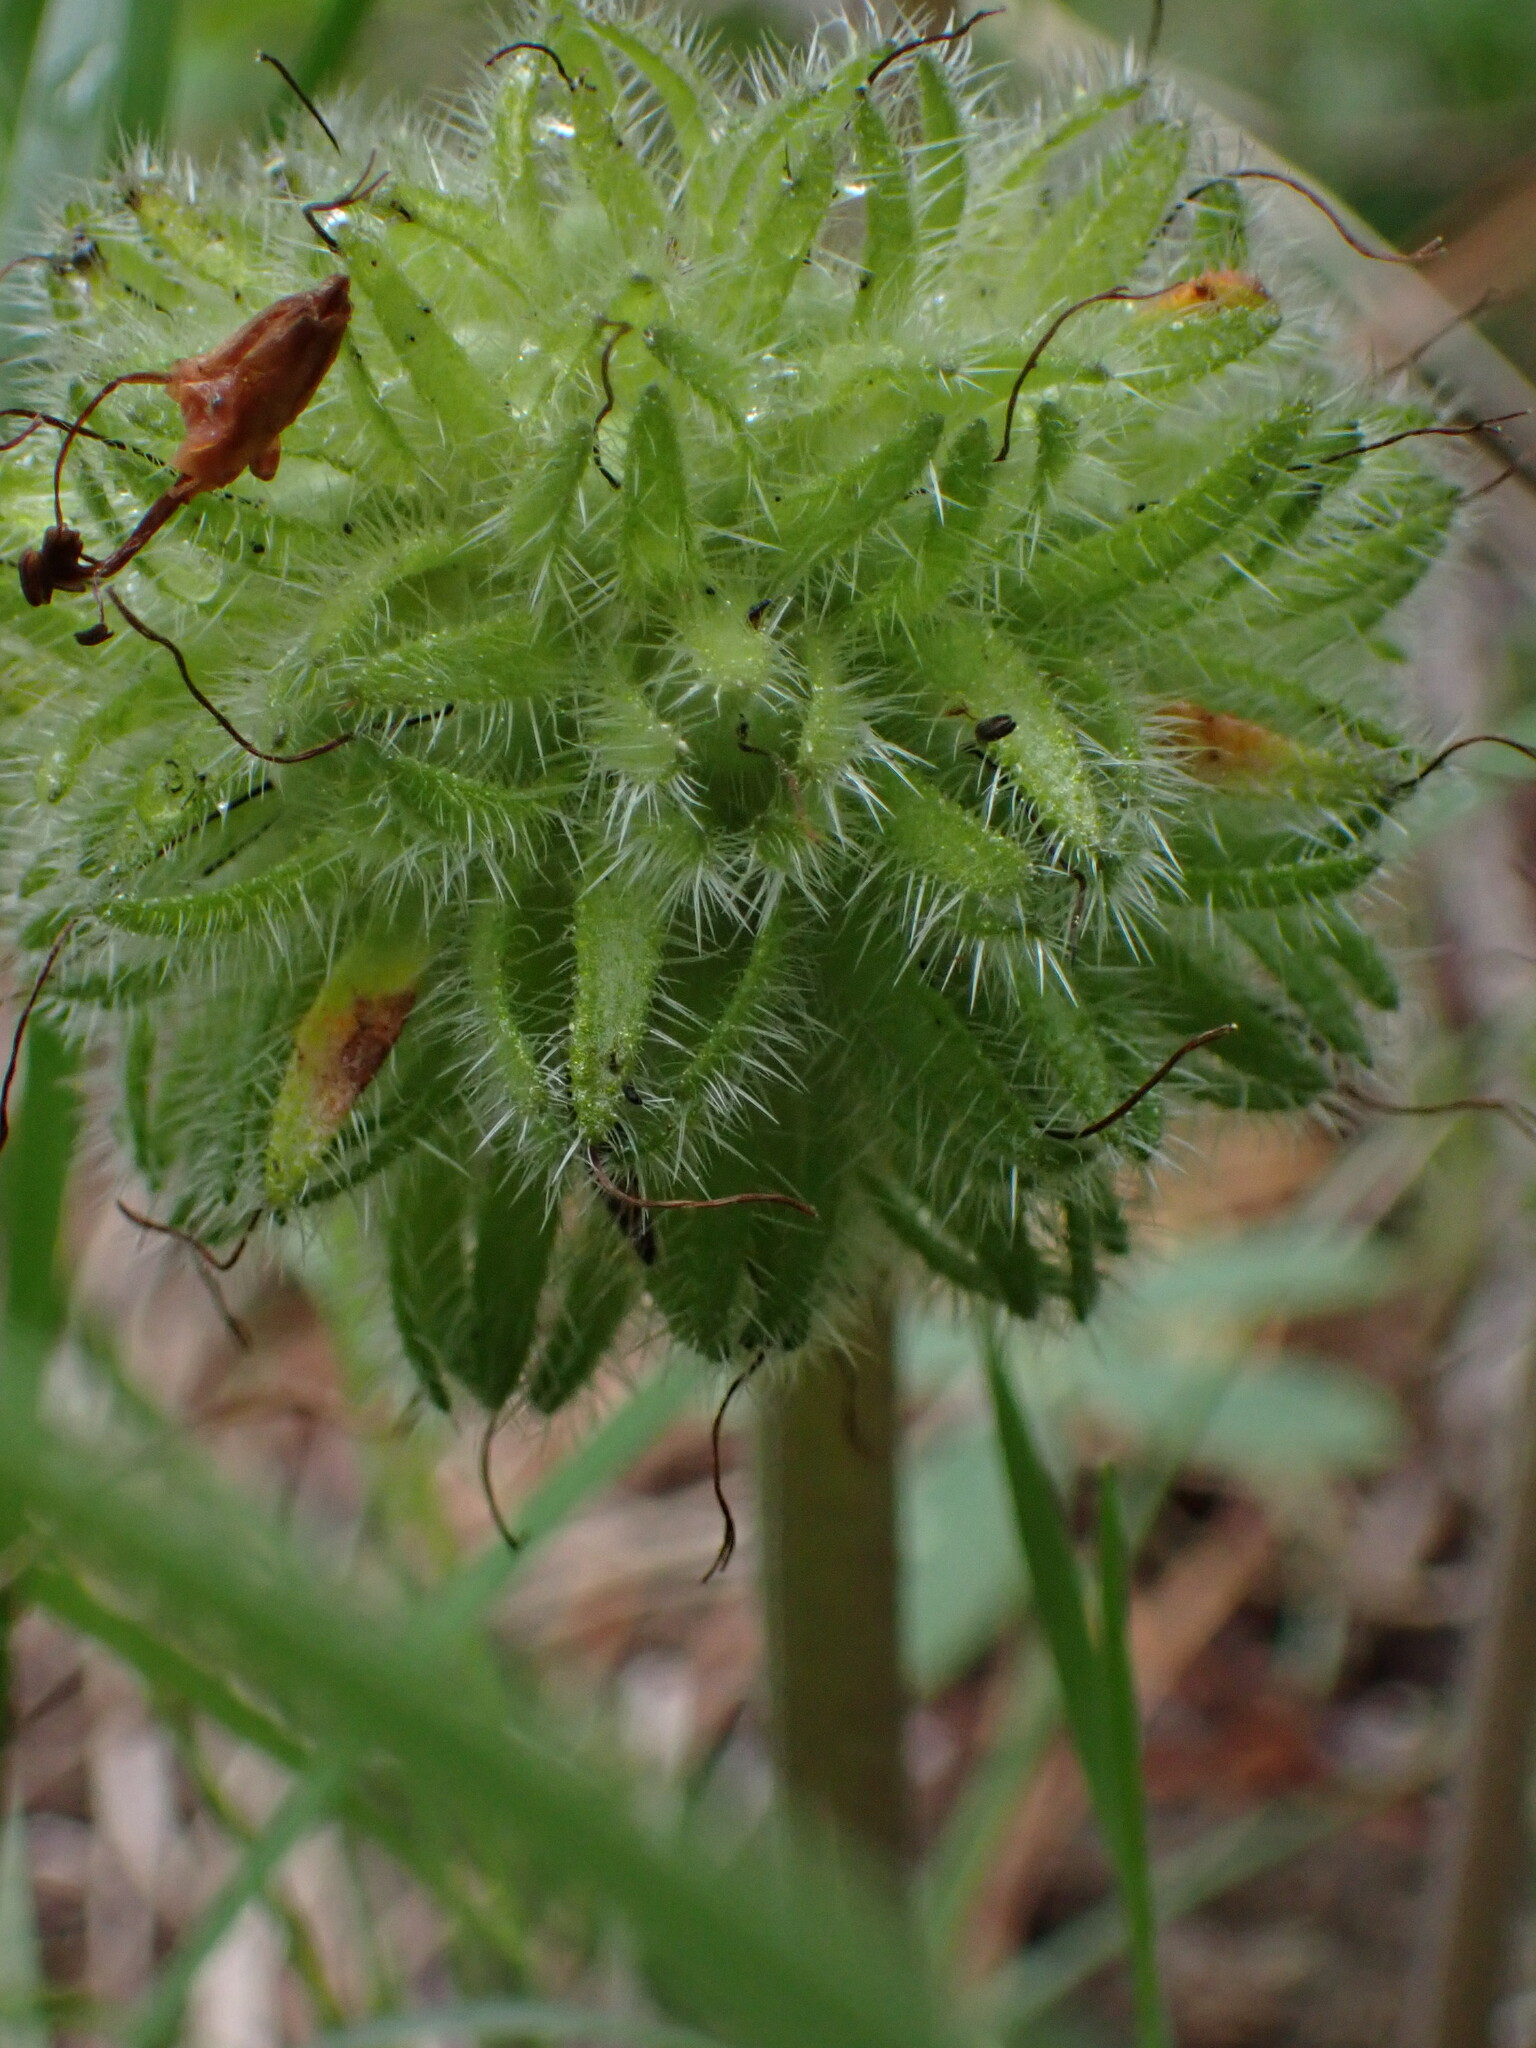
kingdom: Plantae
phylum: Tracheophyta
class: Magnoliopsida
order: Boraginales
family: Hydrophyllaceae
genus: Hydrophyllum
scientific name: Hydrophyllum capitatum
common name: Woollen-breeches
